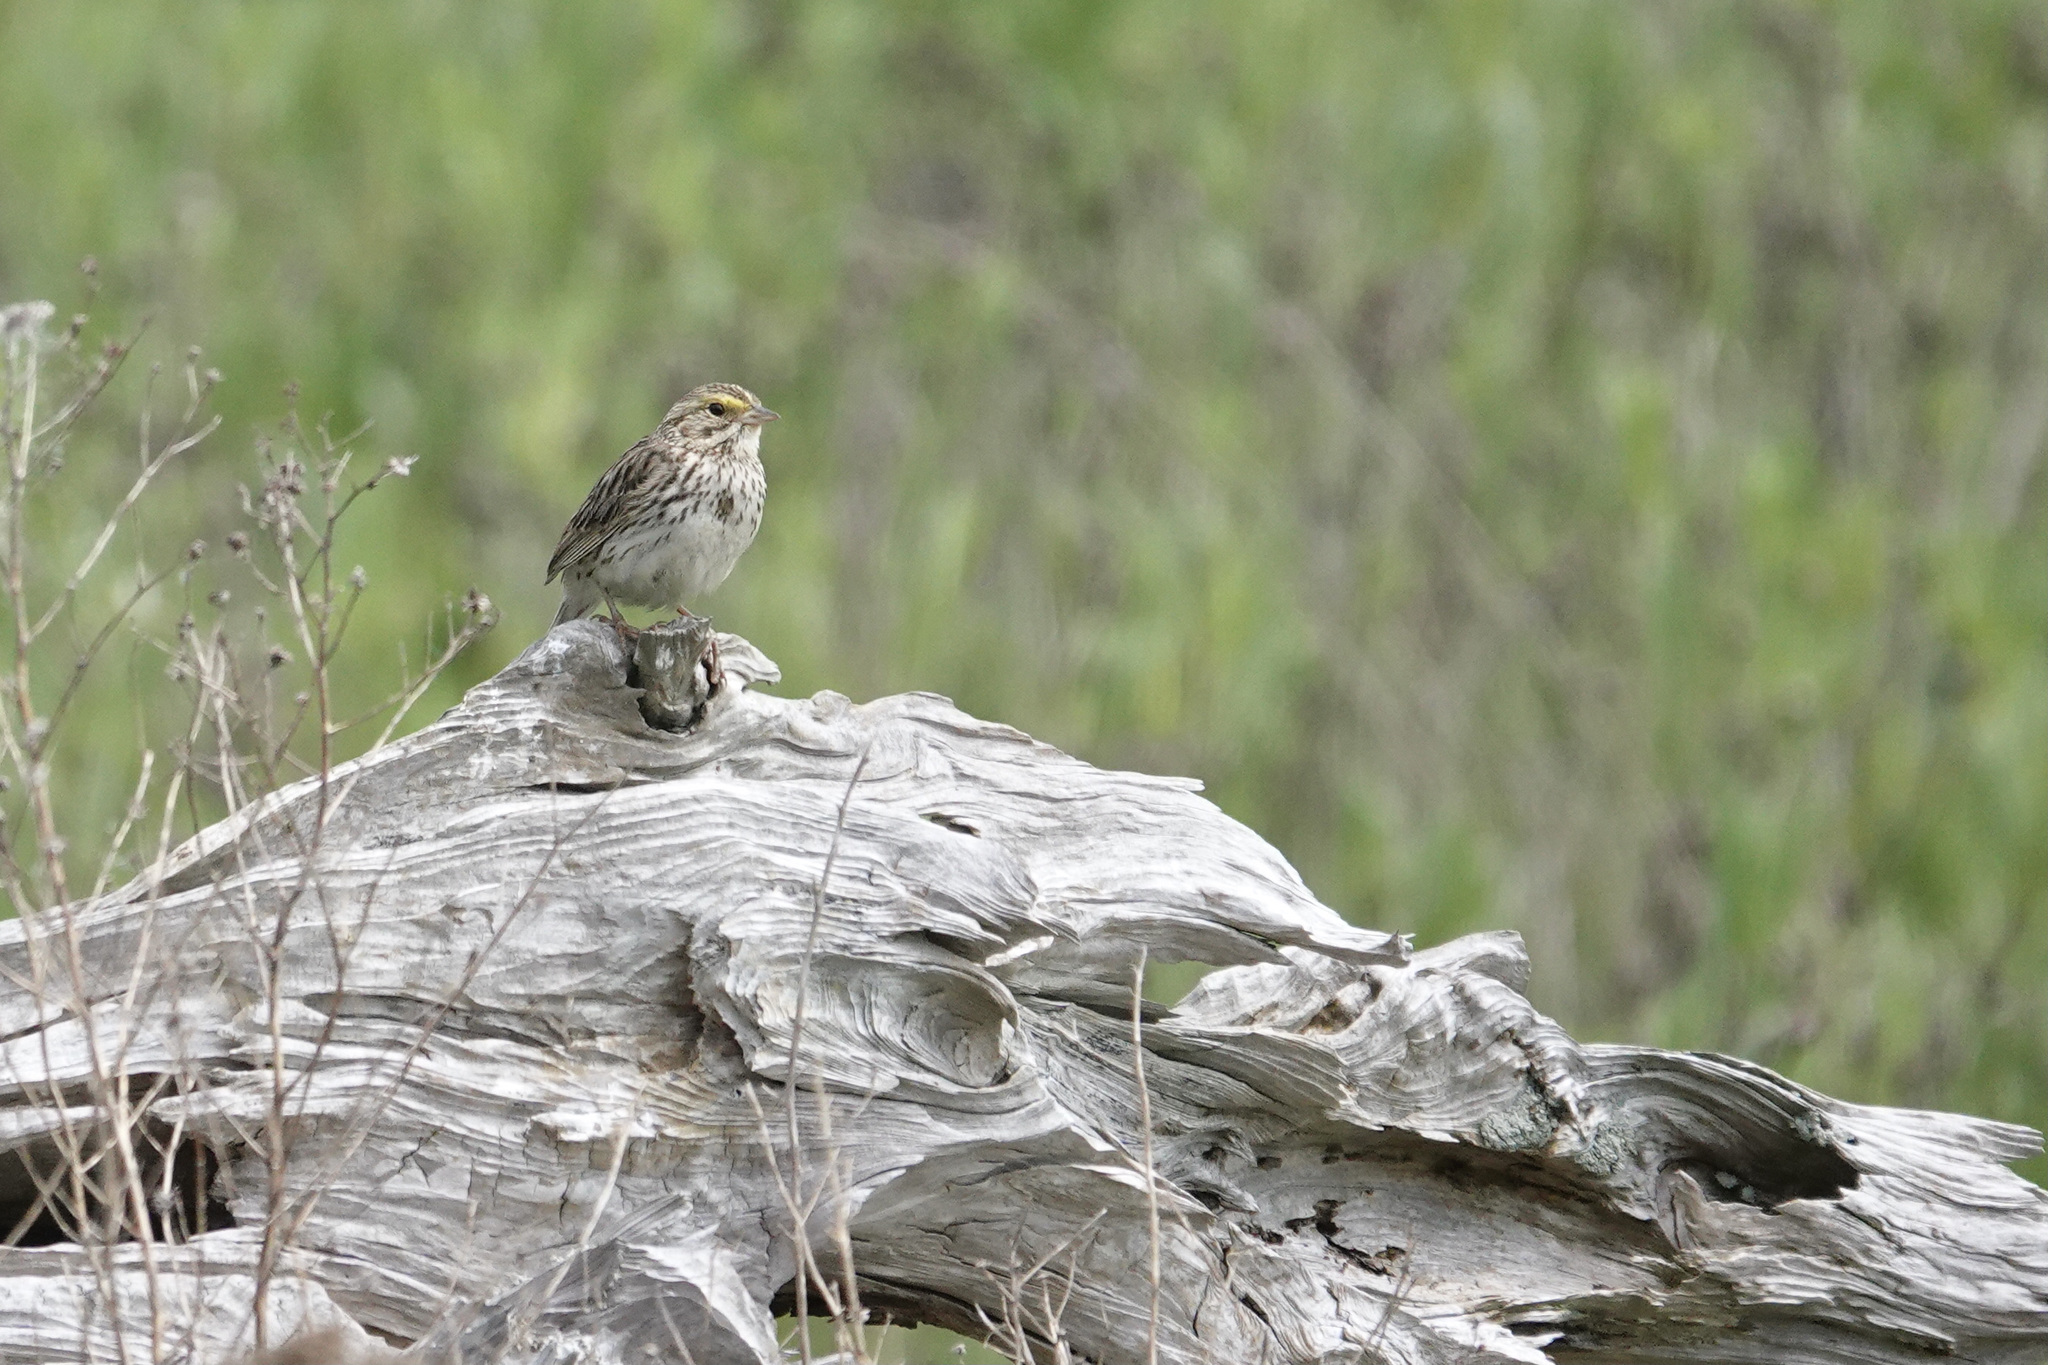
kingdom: Animalia
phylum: Chordata
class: Aves
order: Passeriformes
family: Passerellidae
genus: Passerculus
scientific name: Passerculus sandwichensis
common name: Savannah sparrow
